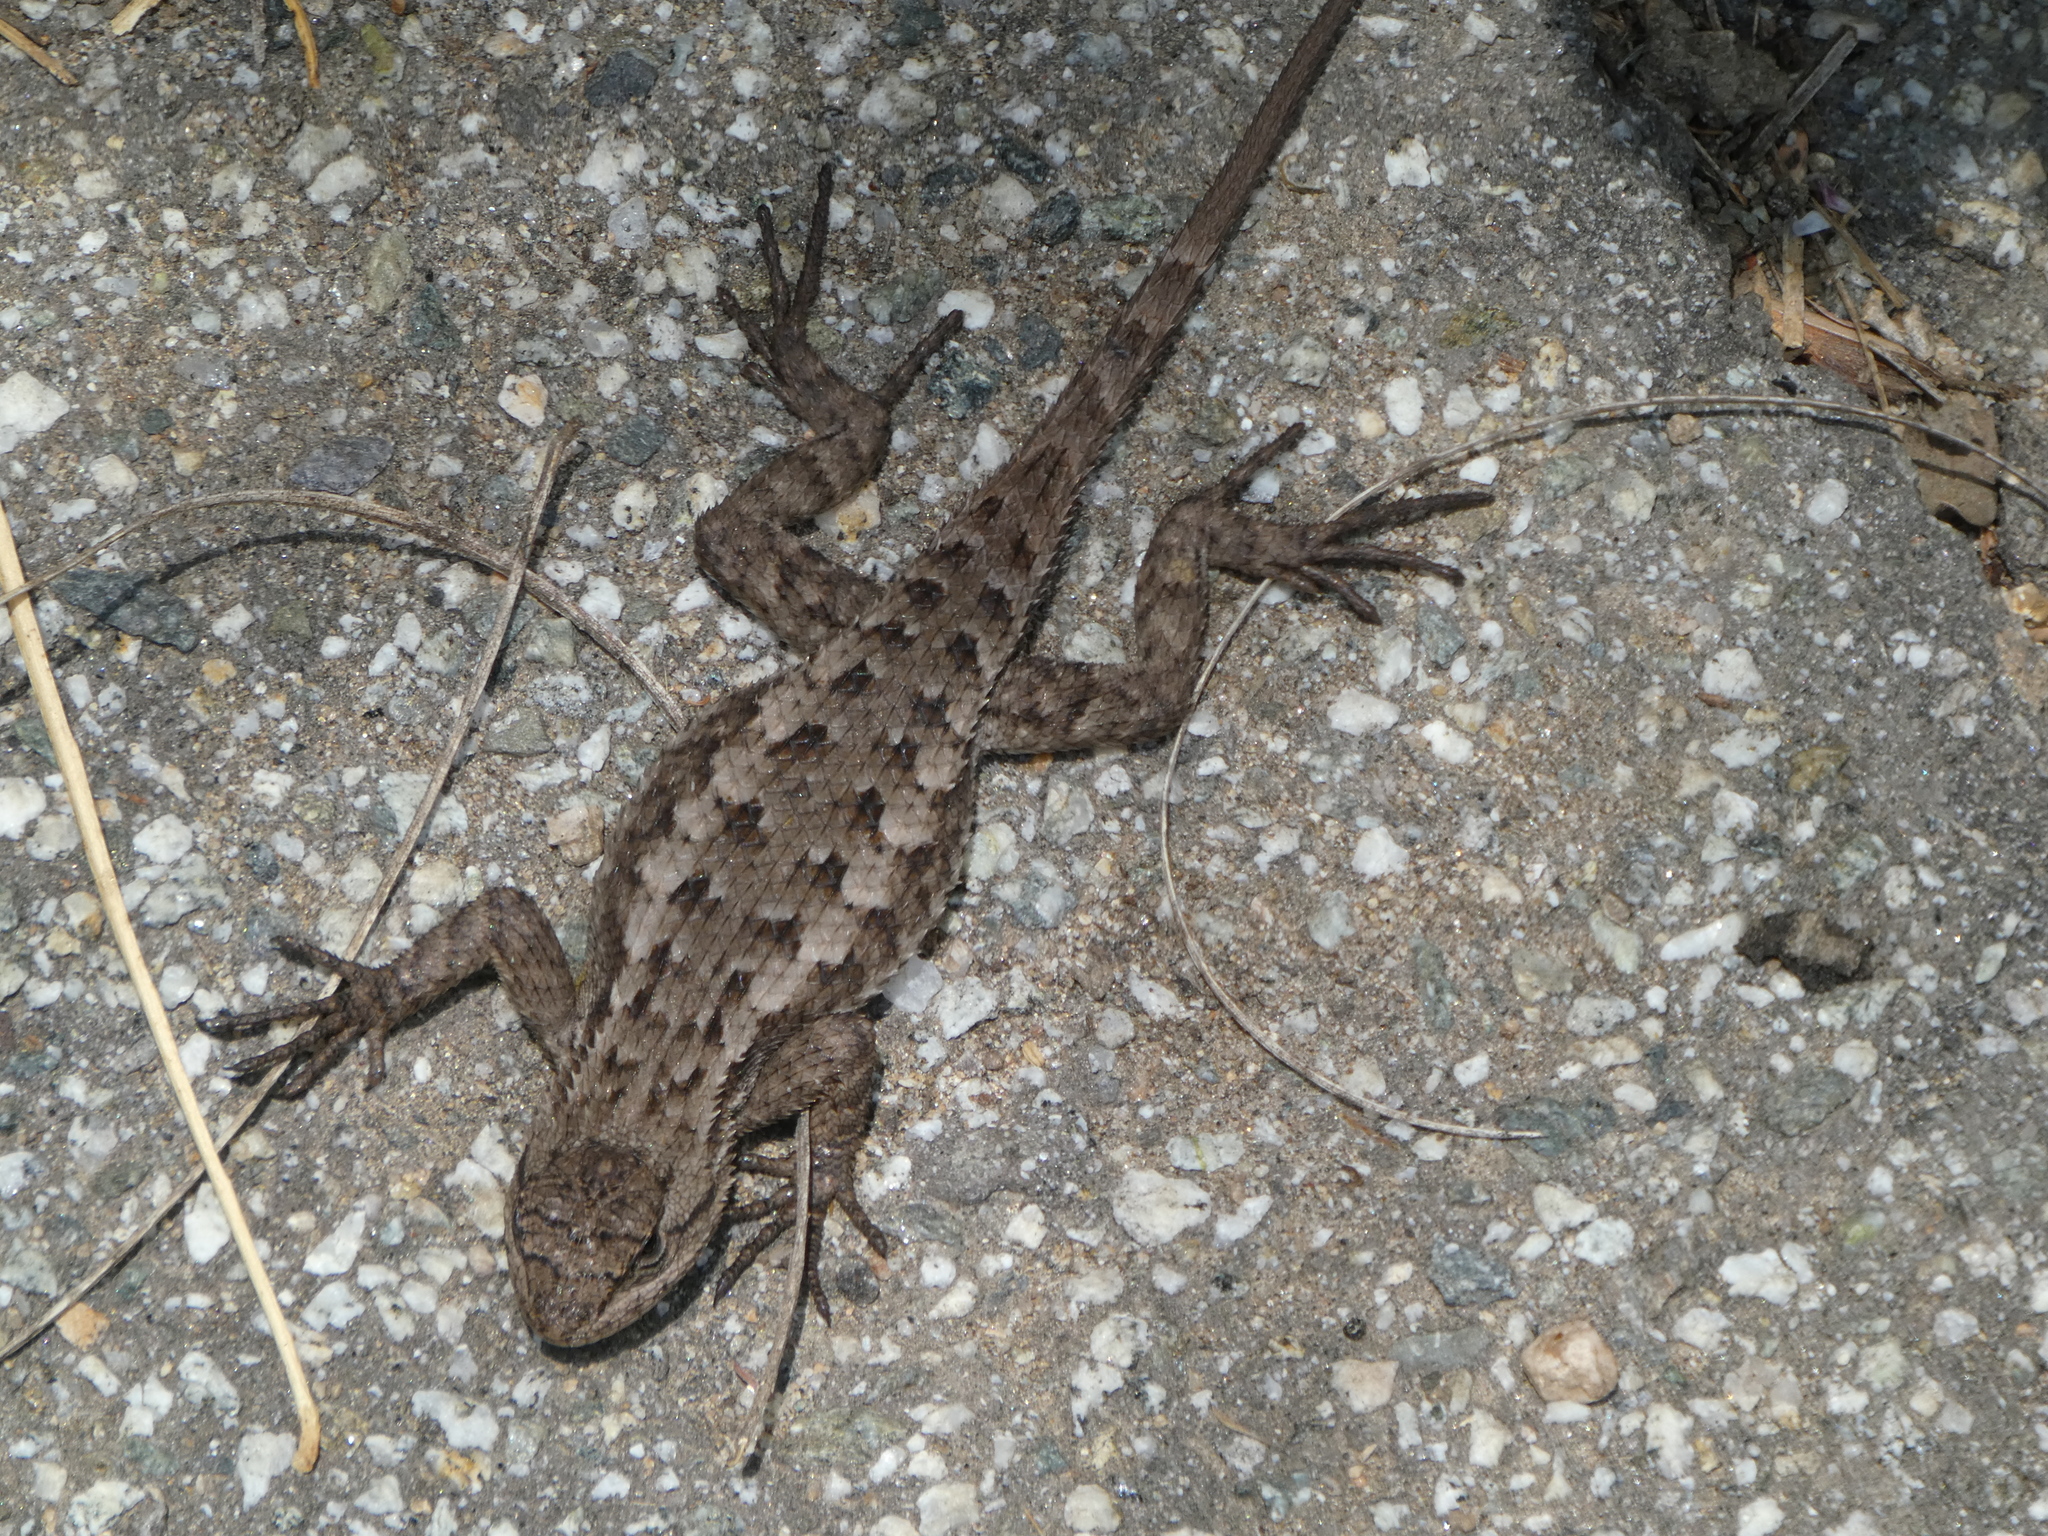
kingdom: Animalia
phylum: Chordata
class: Squamata
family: Phrynosomatidae
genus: Sceloporus
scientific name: Sceloporus occidentalis
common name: Western fence lizard
